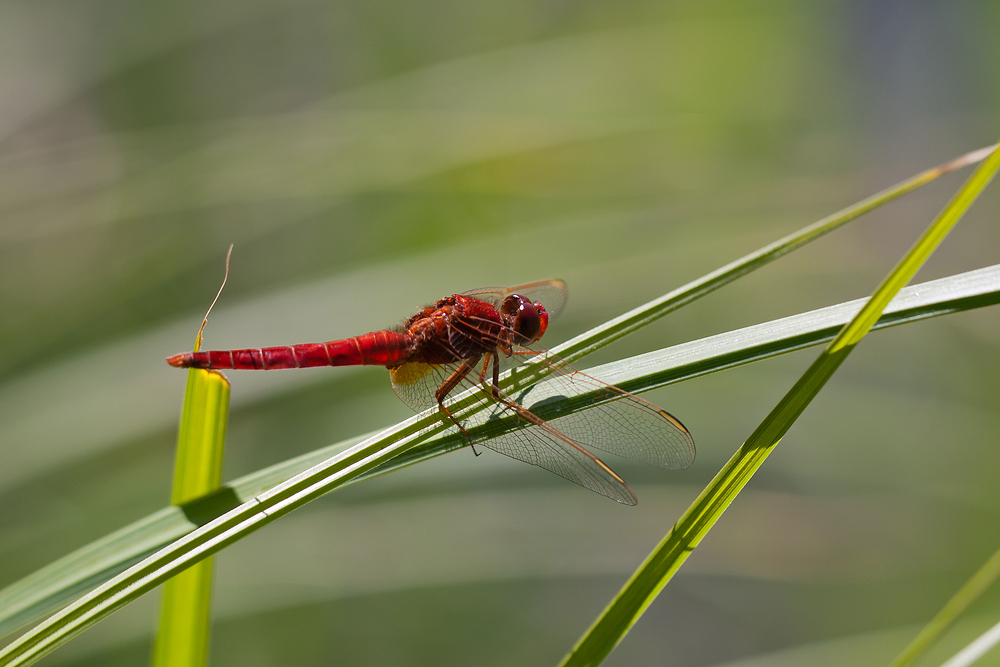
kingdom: Animalia
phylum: Arthropoda
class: Insecta
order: Odonata
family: Libellulidae
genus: Crocothemis
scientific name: Crocothemis erythraea
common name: Scarlet dragonfly
